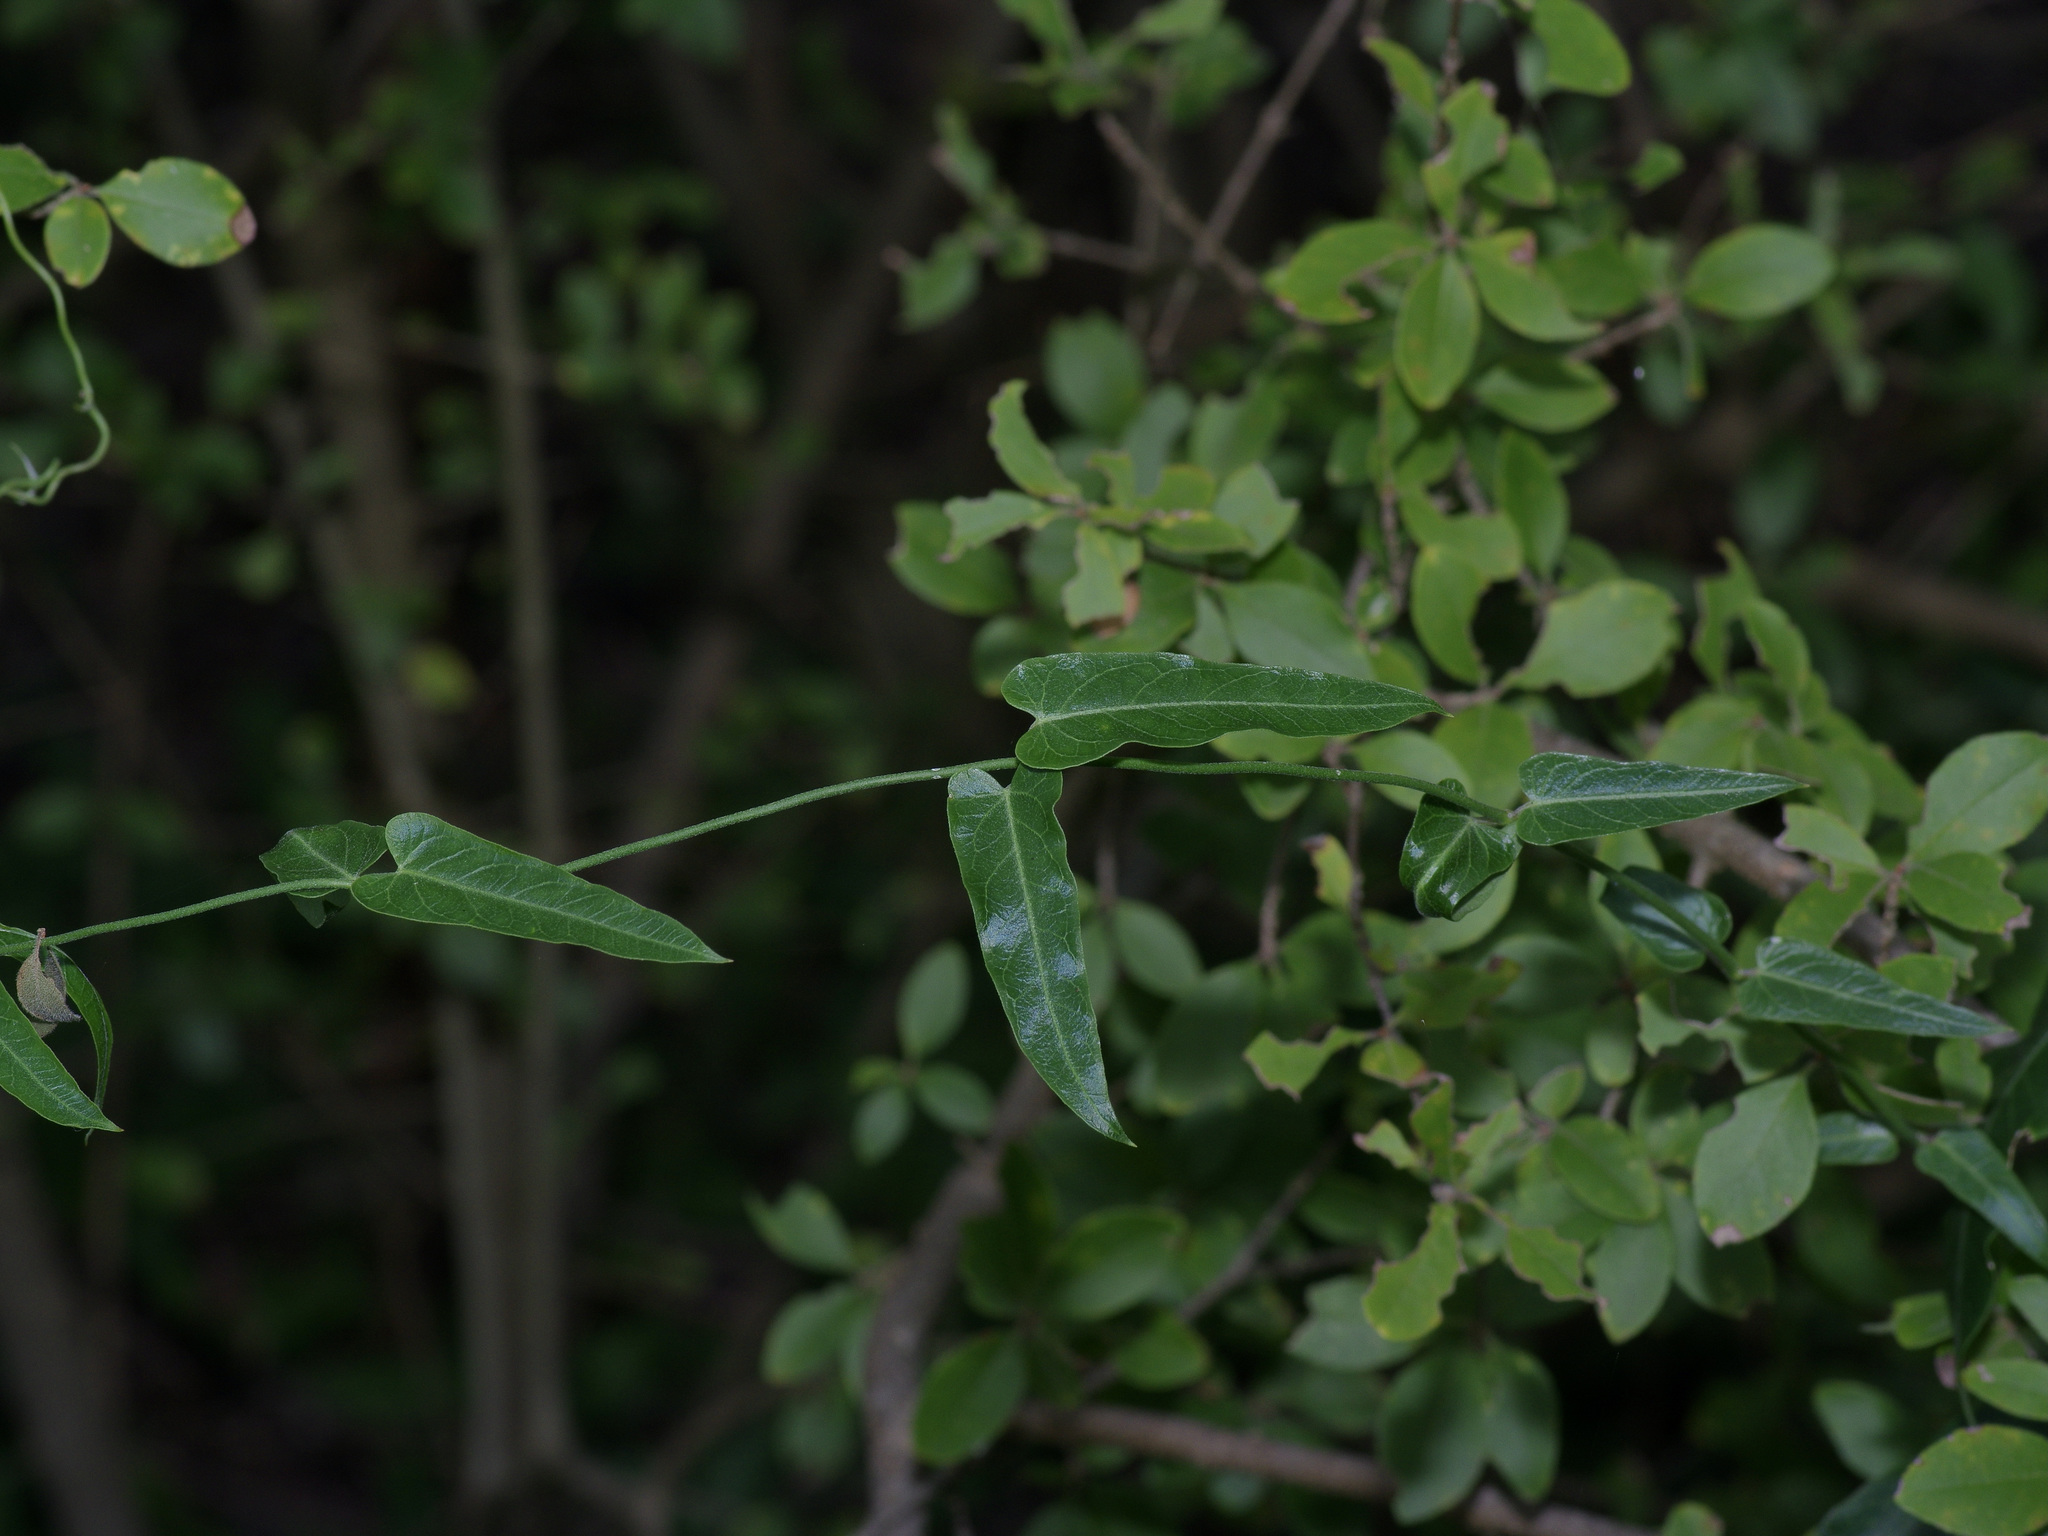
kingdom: Plantae
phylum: Tracheophyta
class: Magnoliopsida
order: Gentianales
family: Apocynaceae
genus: Funastrum
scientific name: Funastrum crispum
